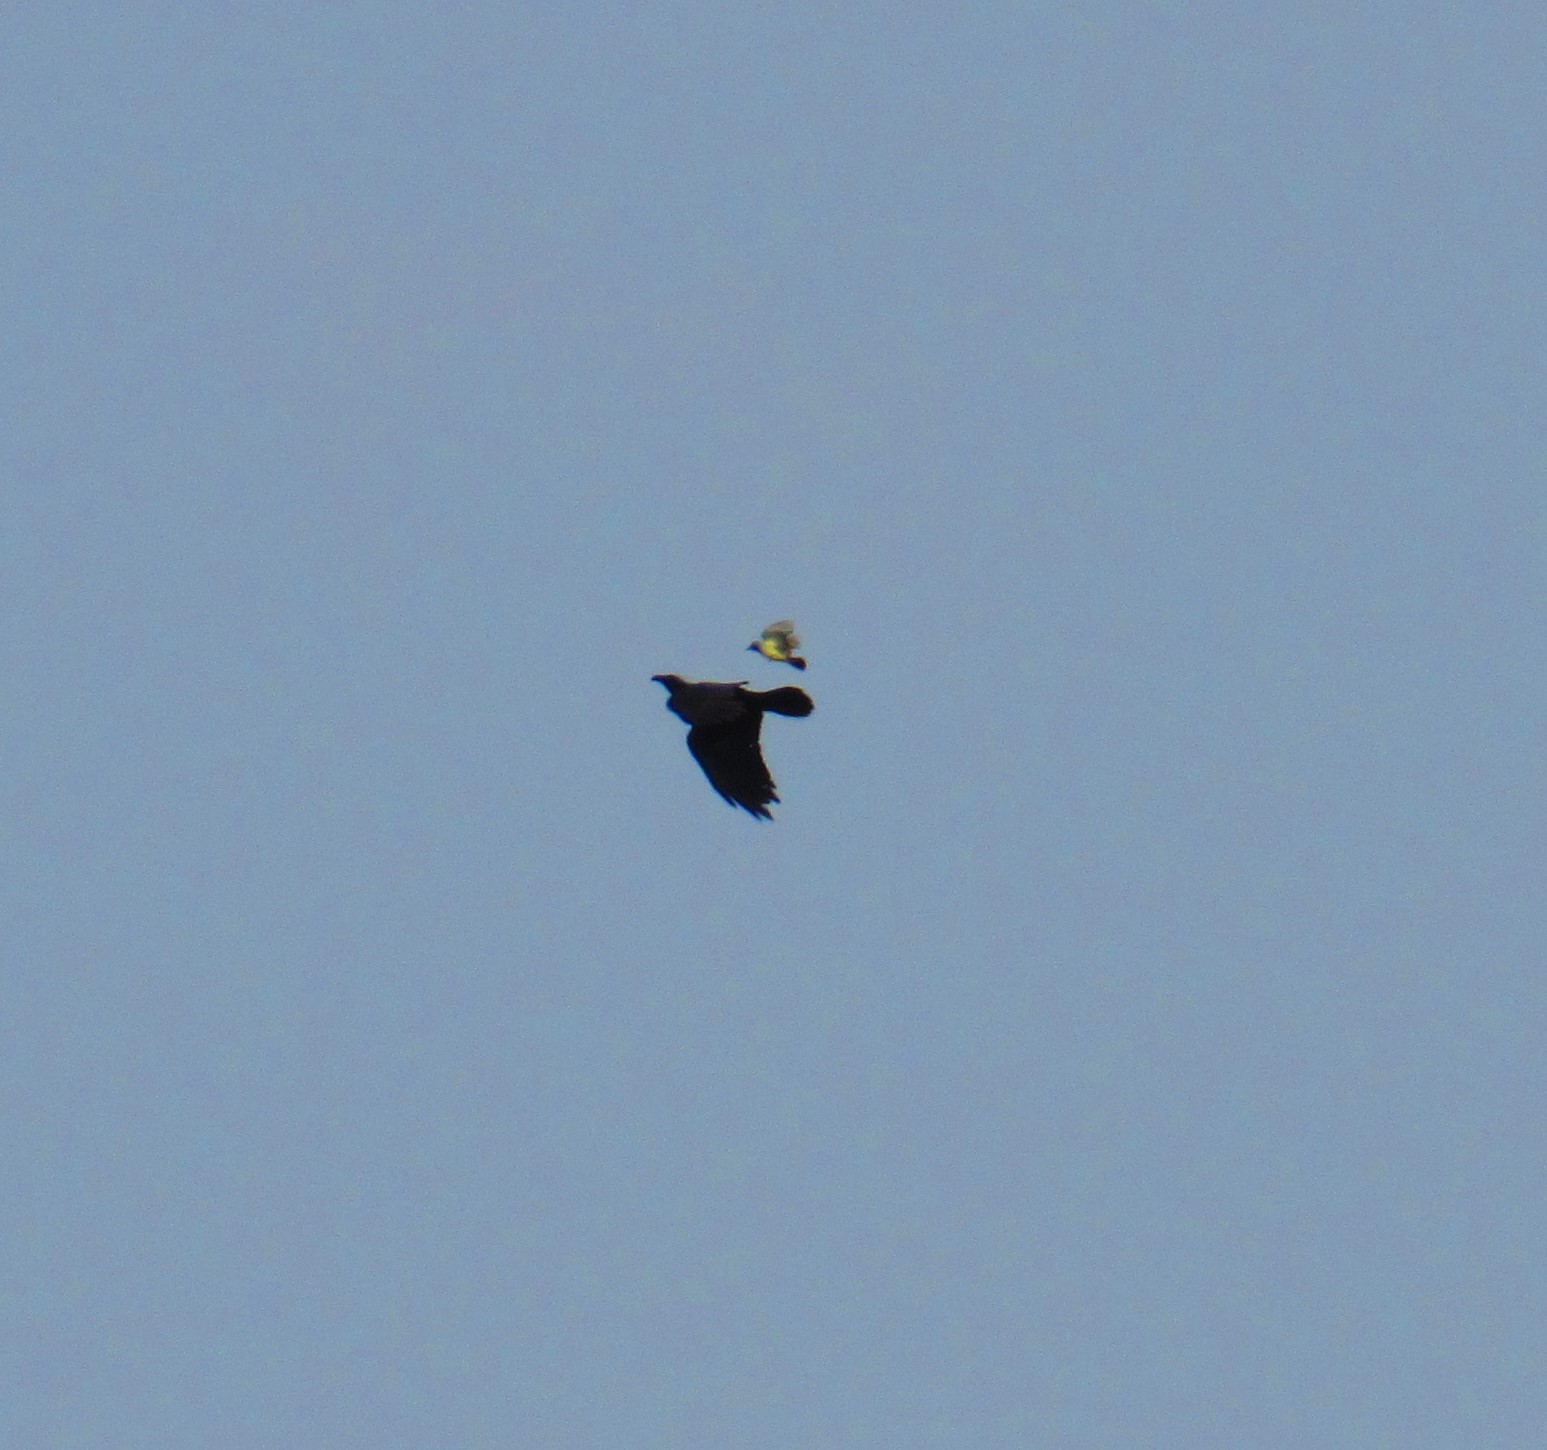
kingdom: Animalia
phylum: Chordata
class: Aves
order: Passeriformes
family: Corvidae
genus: Corvus
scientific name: Corvus corax
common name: Common raven
